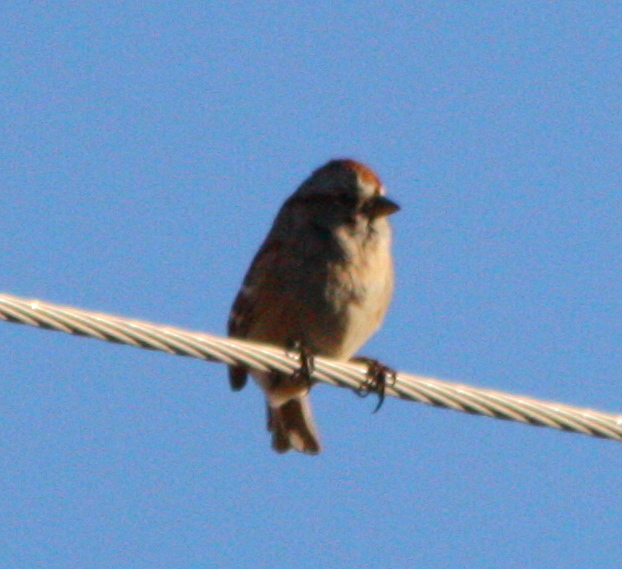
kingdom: Animalia
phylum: Chordata
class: Aves
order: Passeriformes
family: Passerellidae
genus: Spizelloides
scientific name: Spizelloides arborea
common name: American tree sparrow
